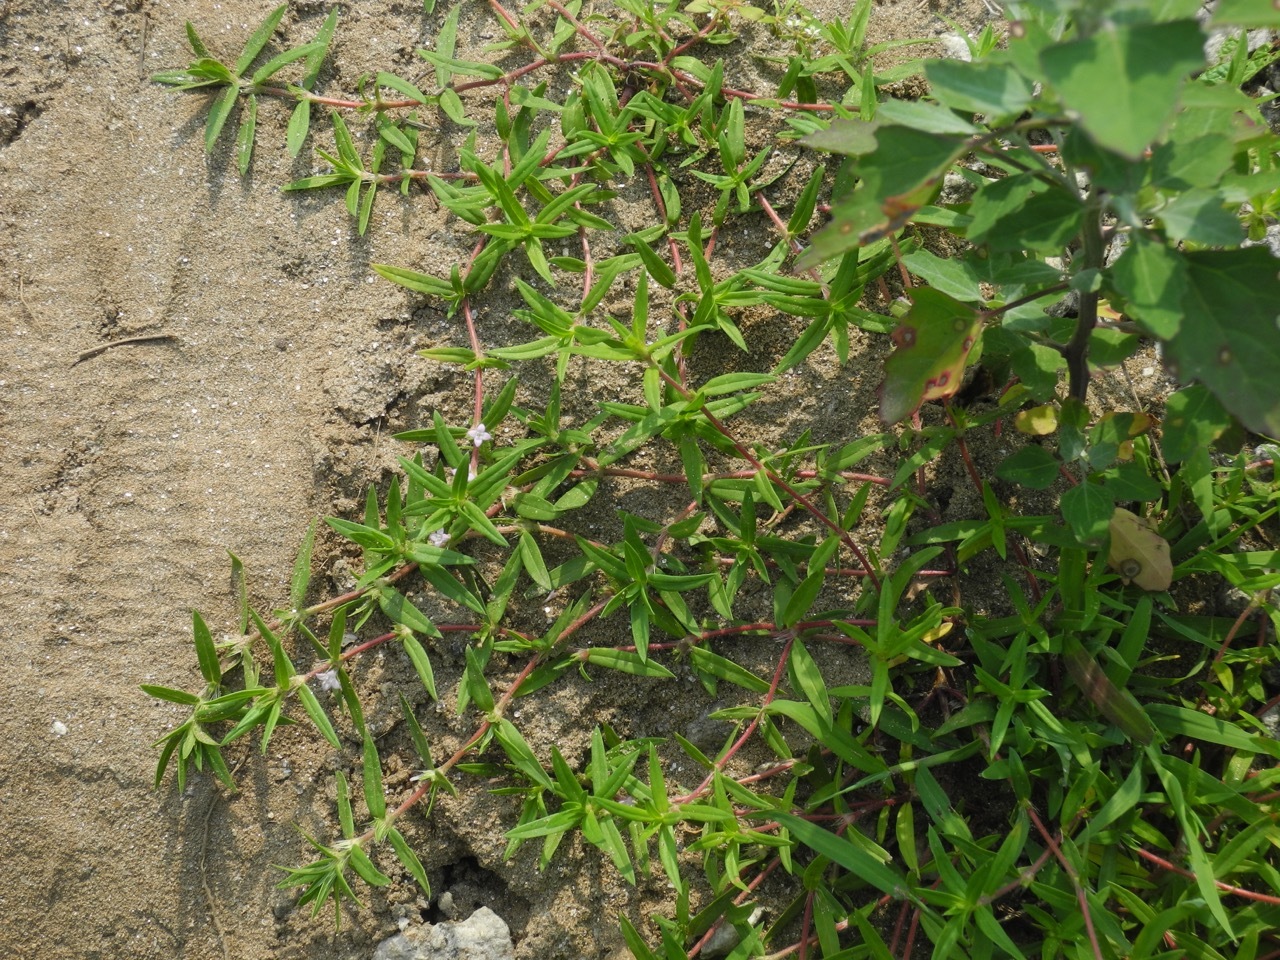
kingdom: Plantae
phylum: Tracheophyta
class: Magnoliopsida
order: Gentianales
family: Rubiaceae
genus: Hexasepalum
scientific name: Hexasepalum teres
